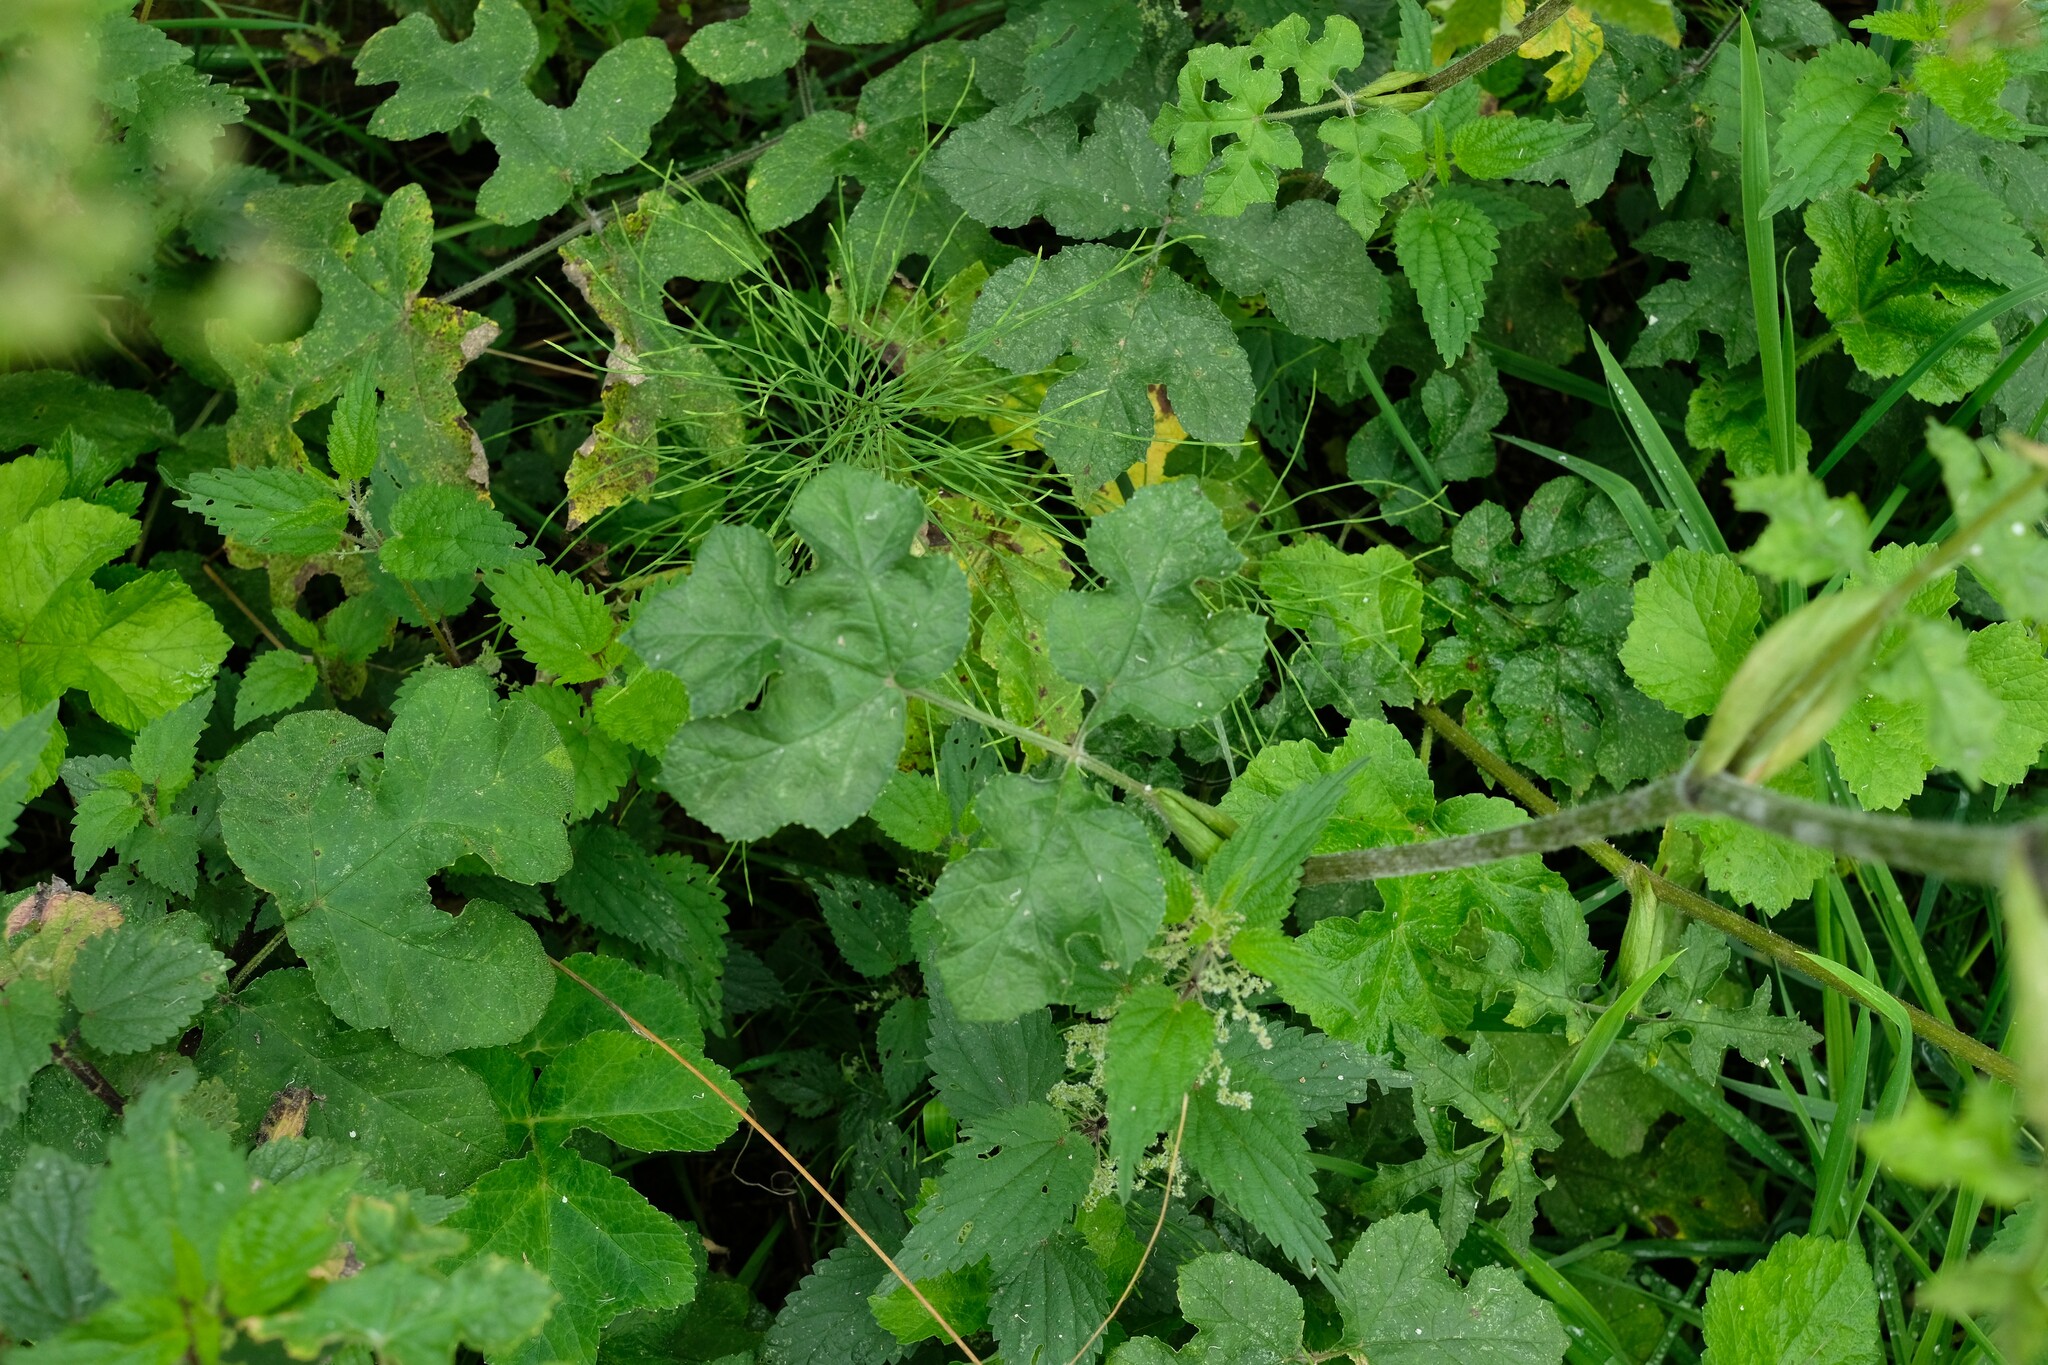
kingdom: Plantae
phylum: Tracheophyta
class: Magnoliopsida
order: Apiales
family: Apiaceae
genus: Heracleum
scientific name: Heracleum sphondylium
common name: Hogweed
